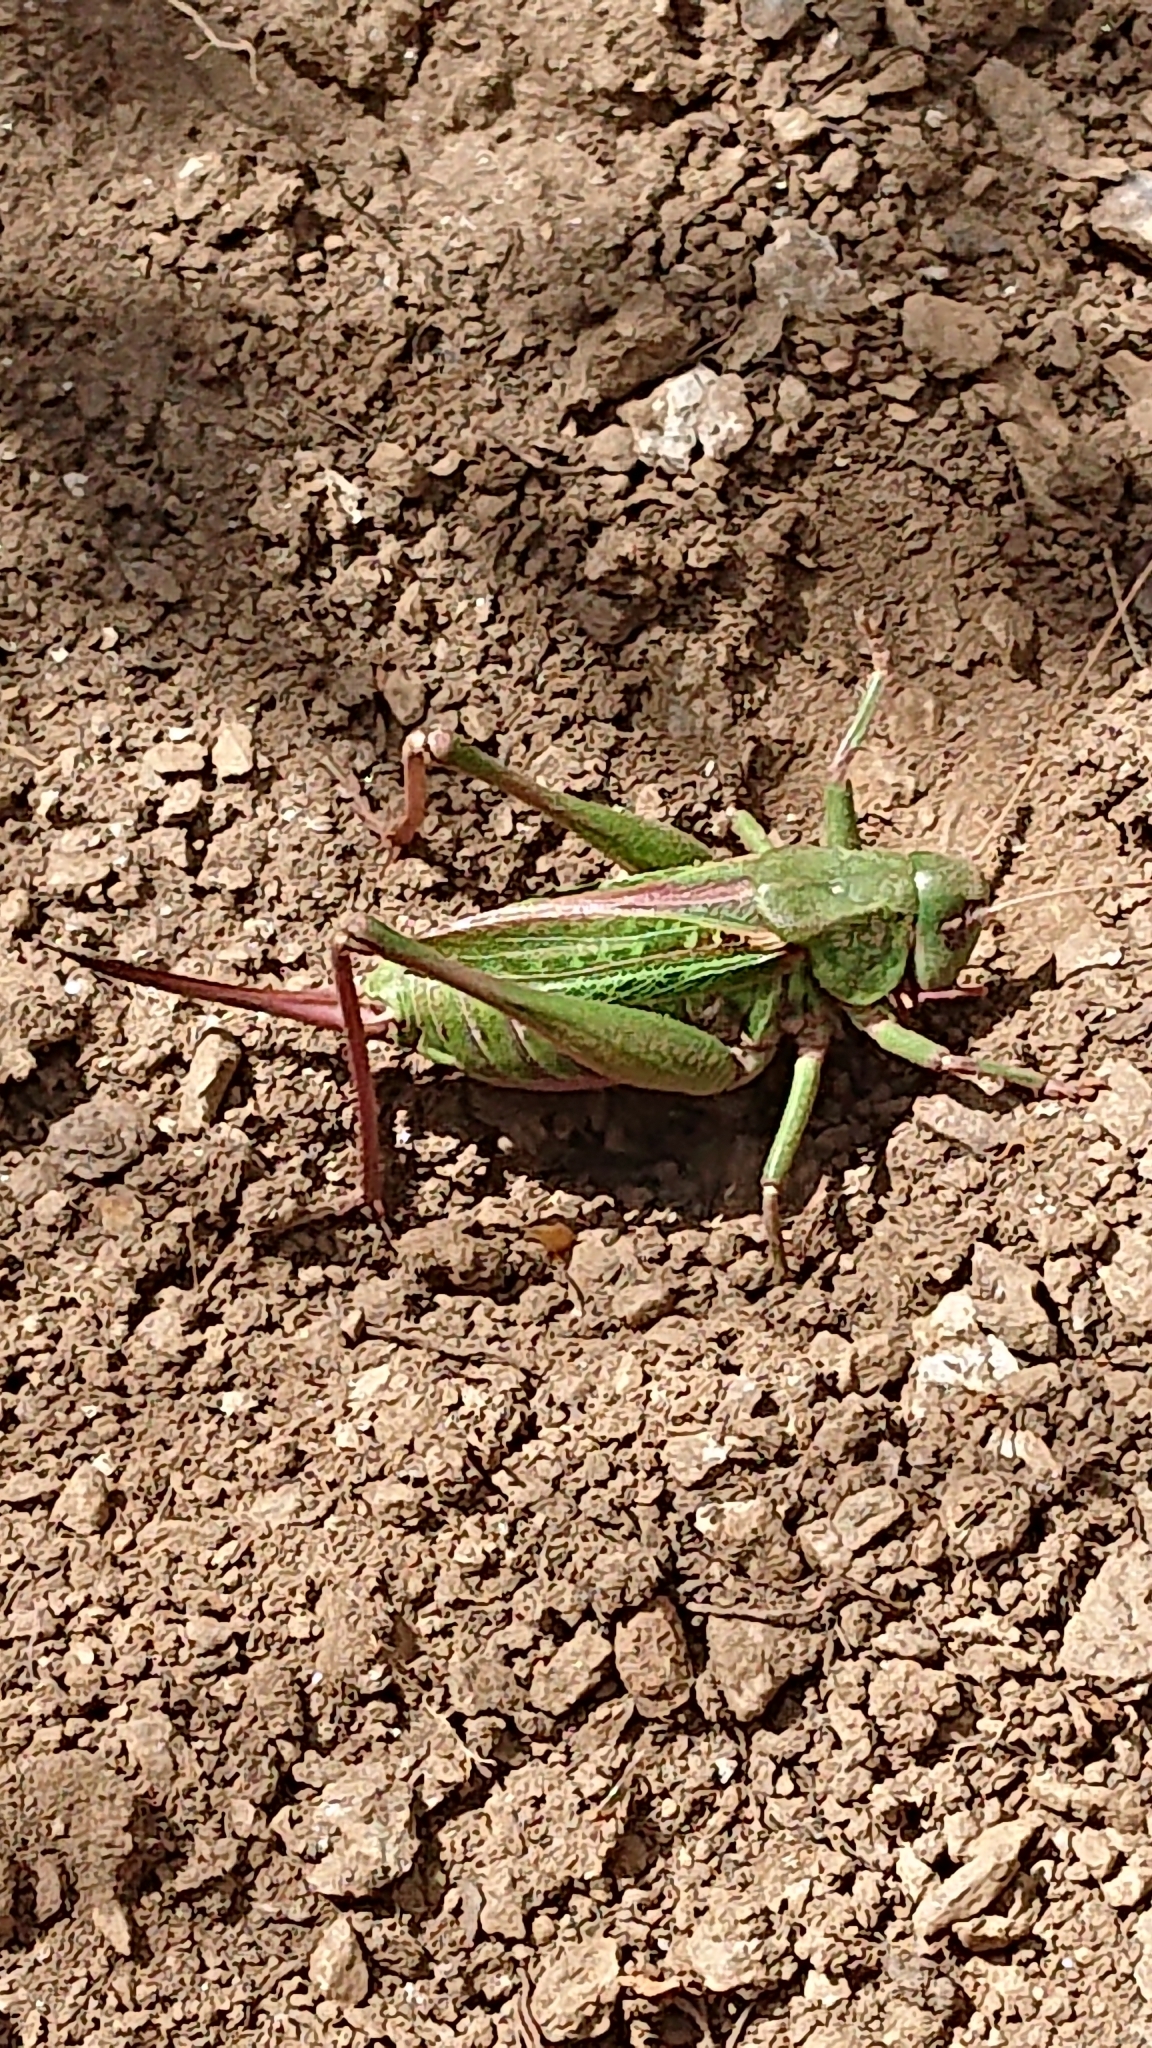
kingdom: Animalia
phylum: Arthropoda
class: Insecta
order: Orthoptera
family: Tettigoniidae
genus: Decticus
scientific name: Decticus verrucivorus
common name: Wart-biter
